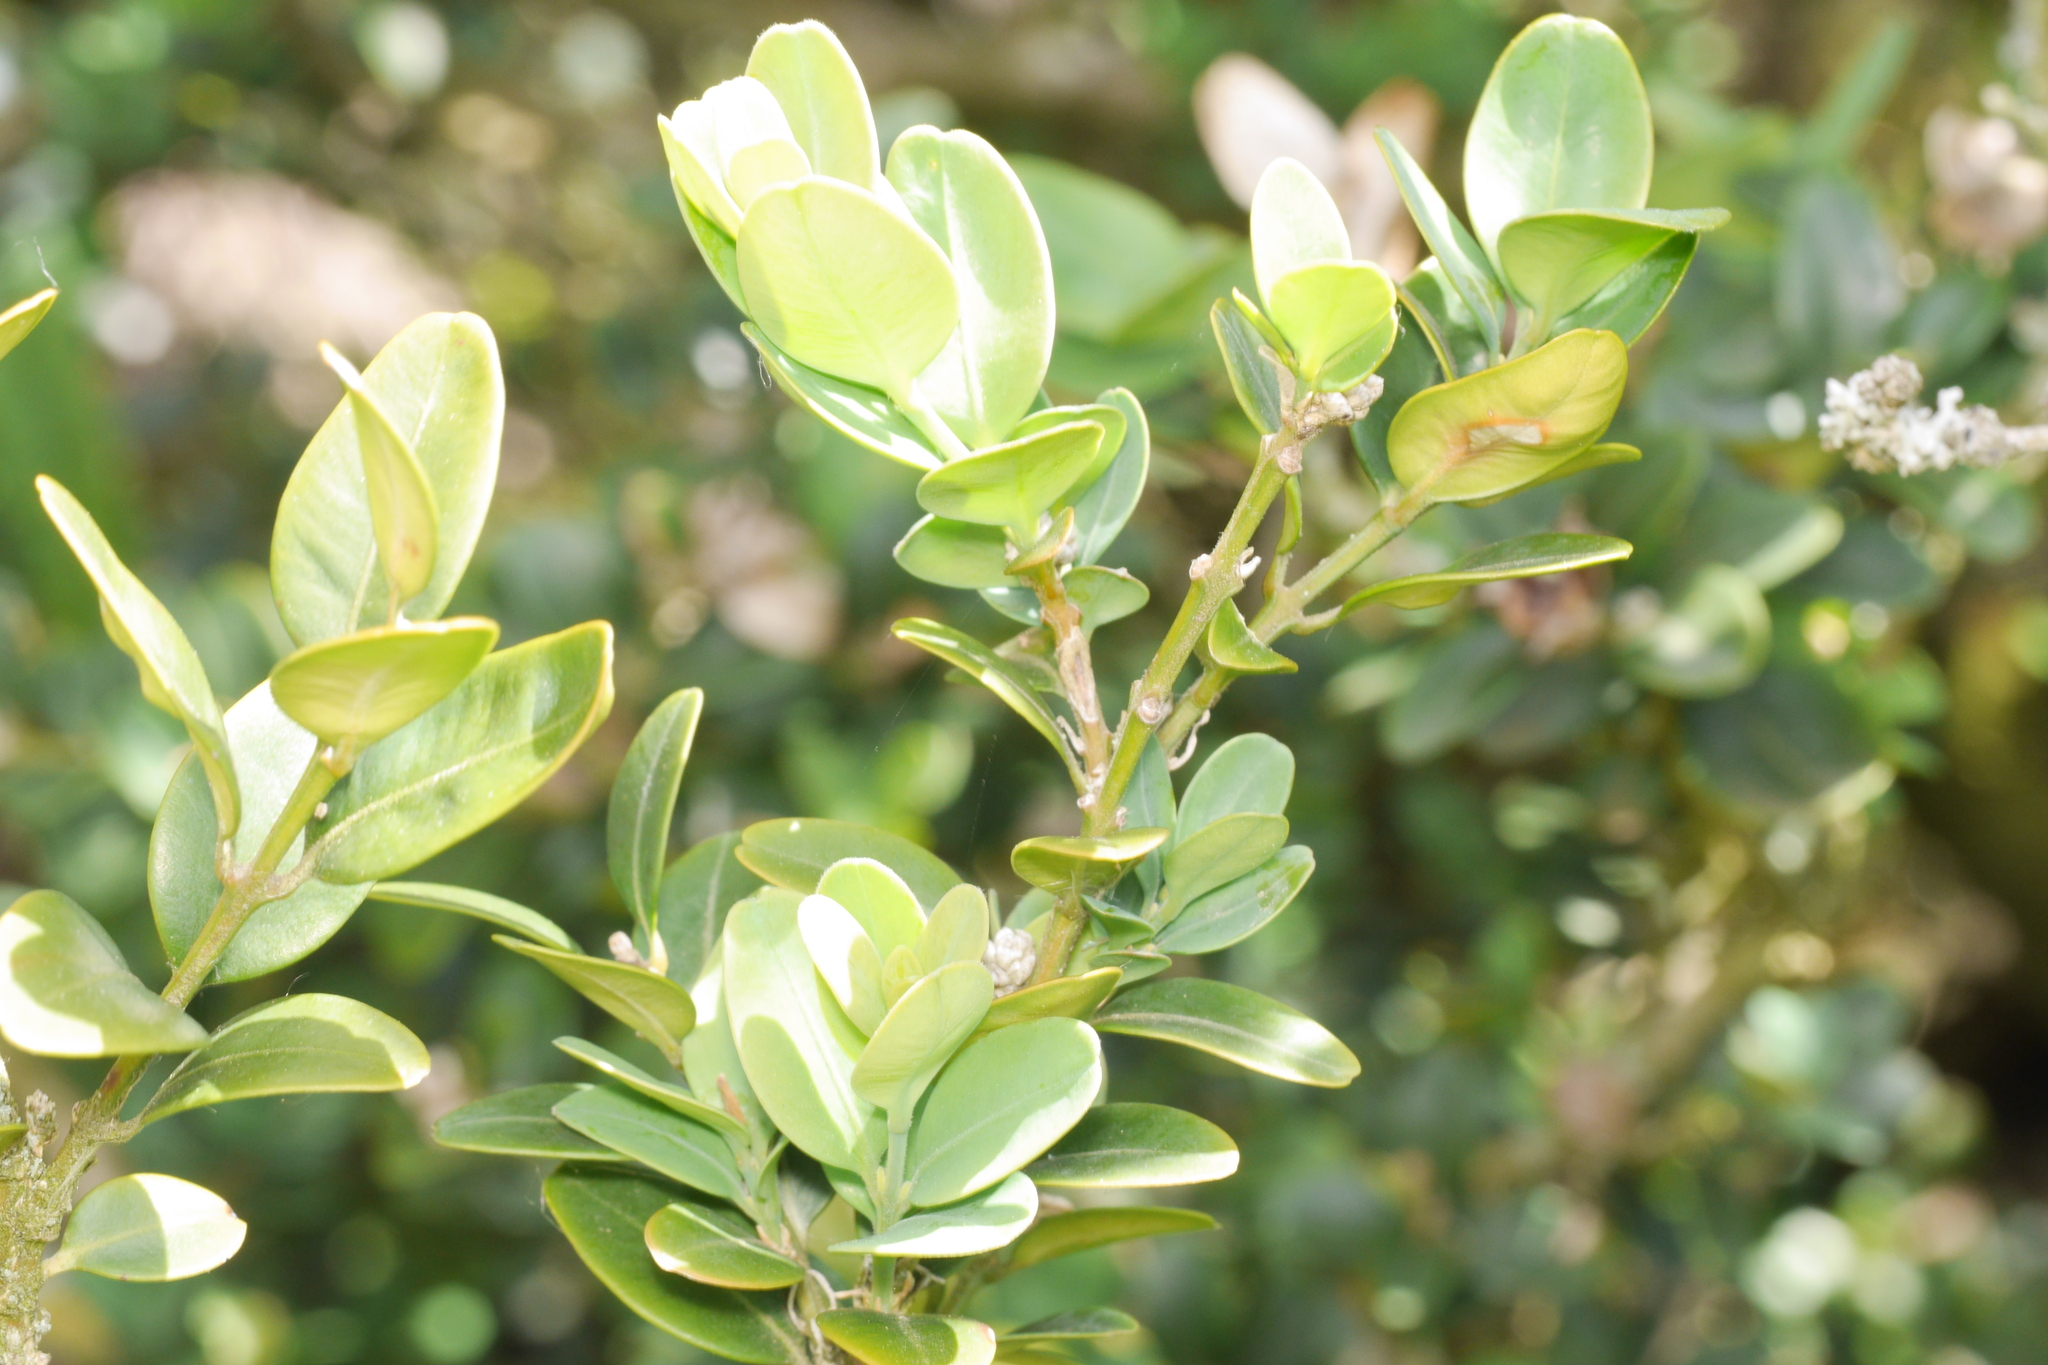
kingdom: Plantae
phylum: Tracheophyta
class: Magnoliopsida
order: Buxales
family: Buxaceae
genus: Buxus
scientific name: Buxus sempervirens
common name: Box
